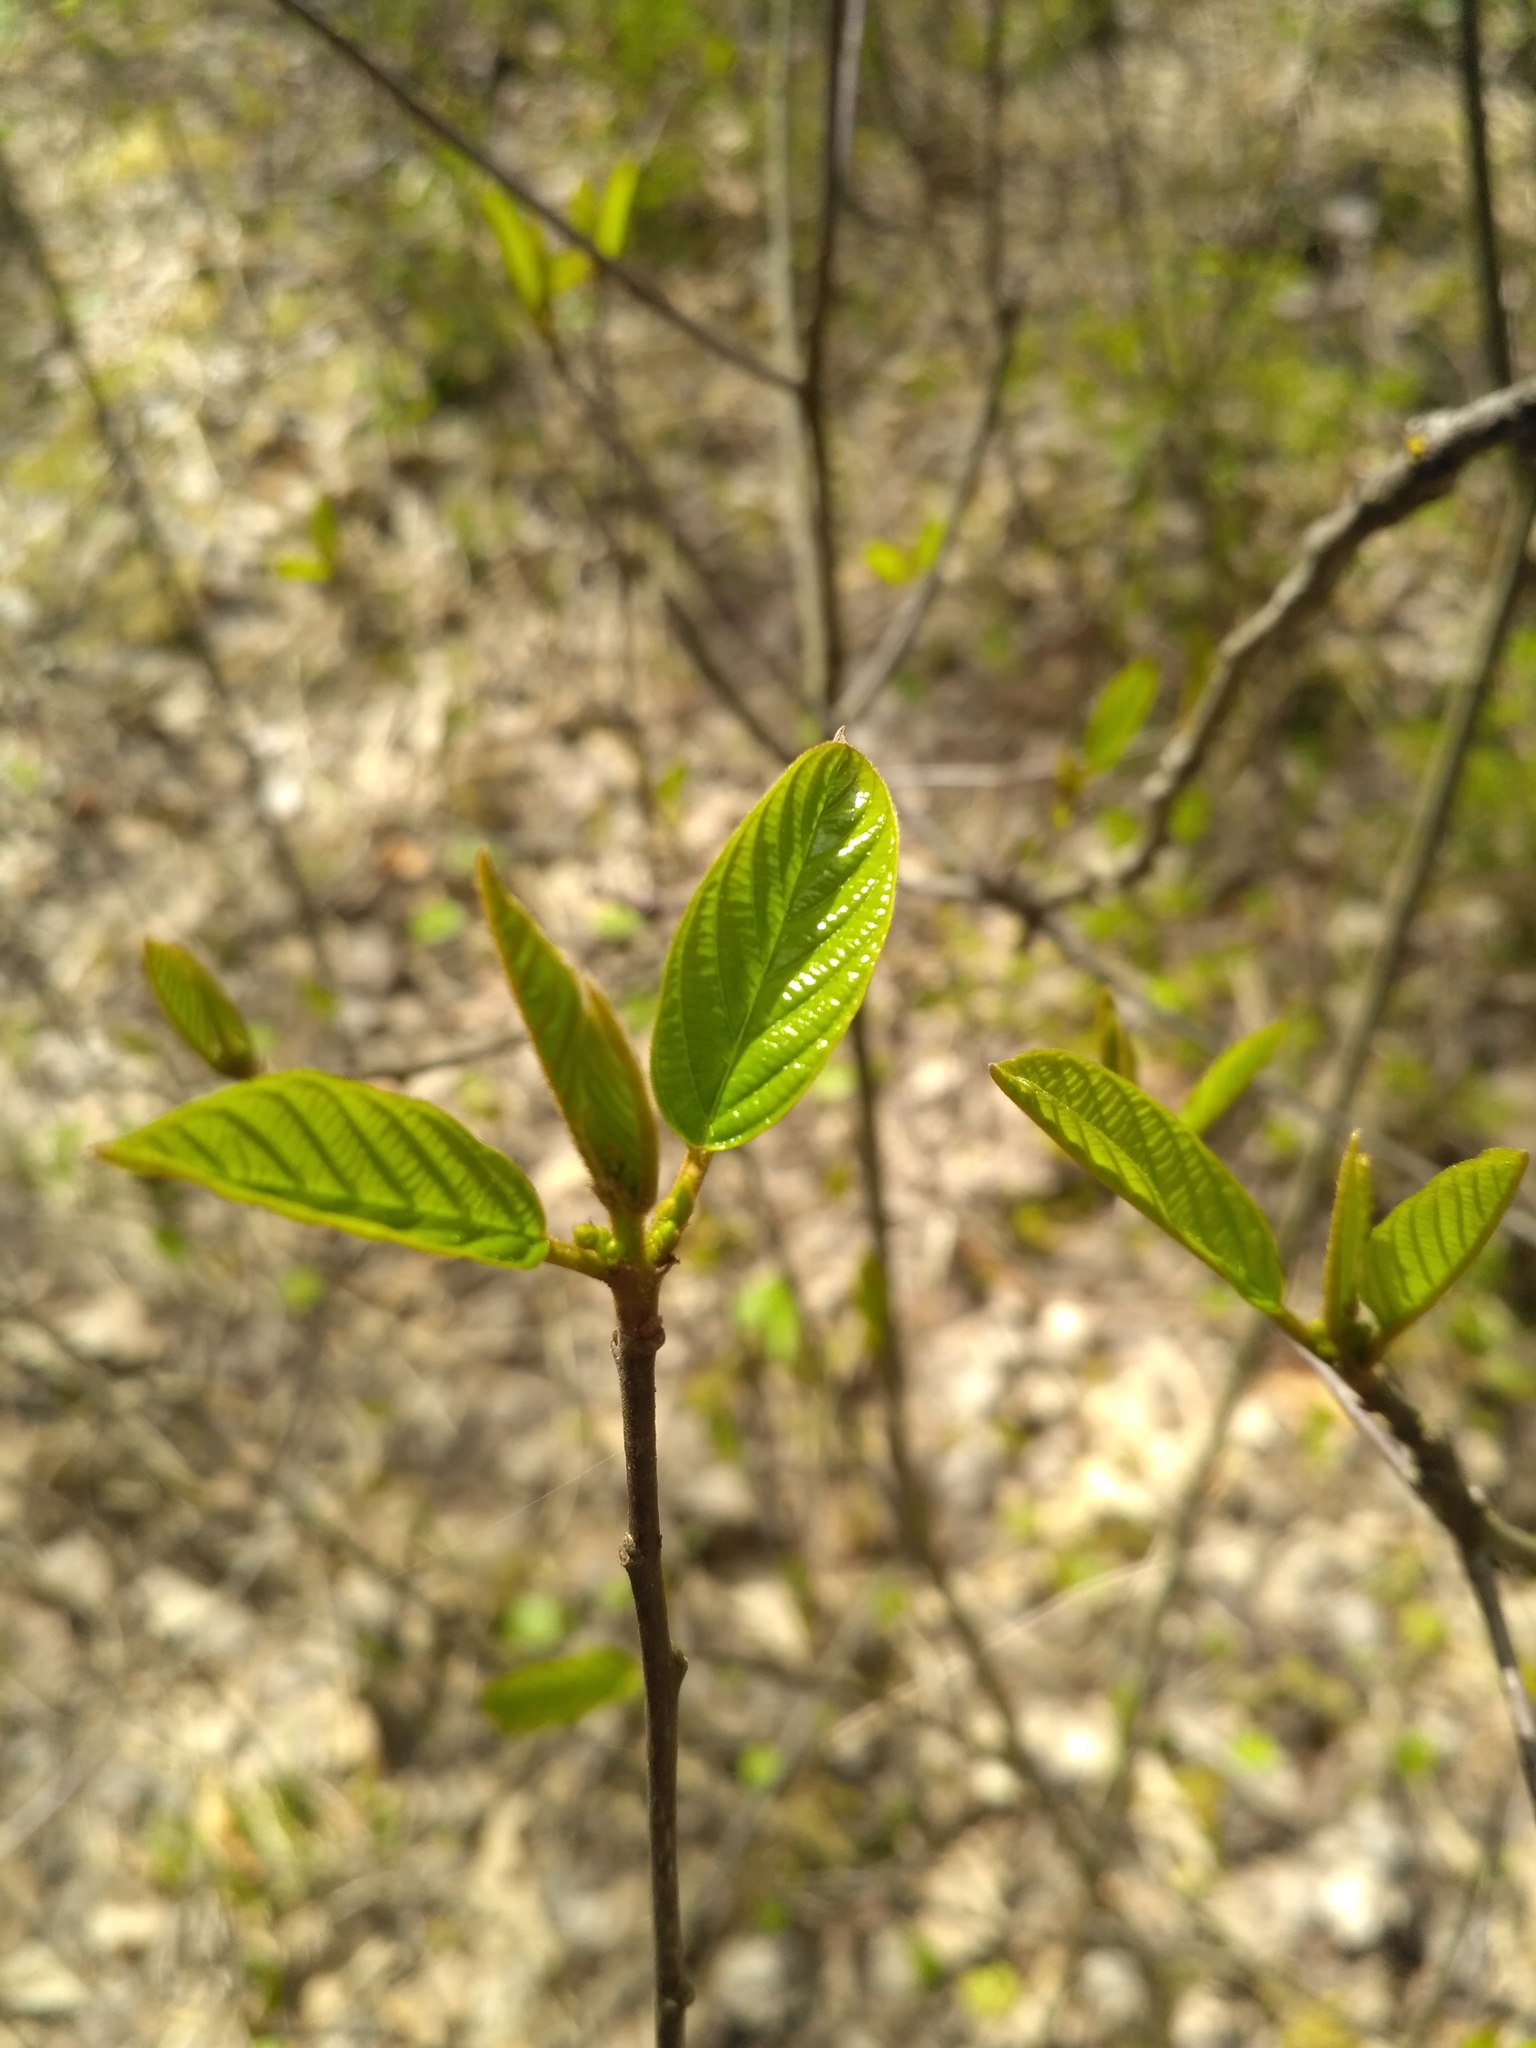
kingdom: Plantae
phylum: Tracheophyta
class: Magnoliopsida
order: Rosales
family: Rhamnaceae
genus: Frangula
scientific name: Frangula alnus
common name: Alder buckthorn
